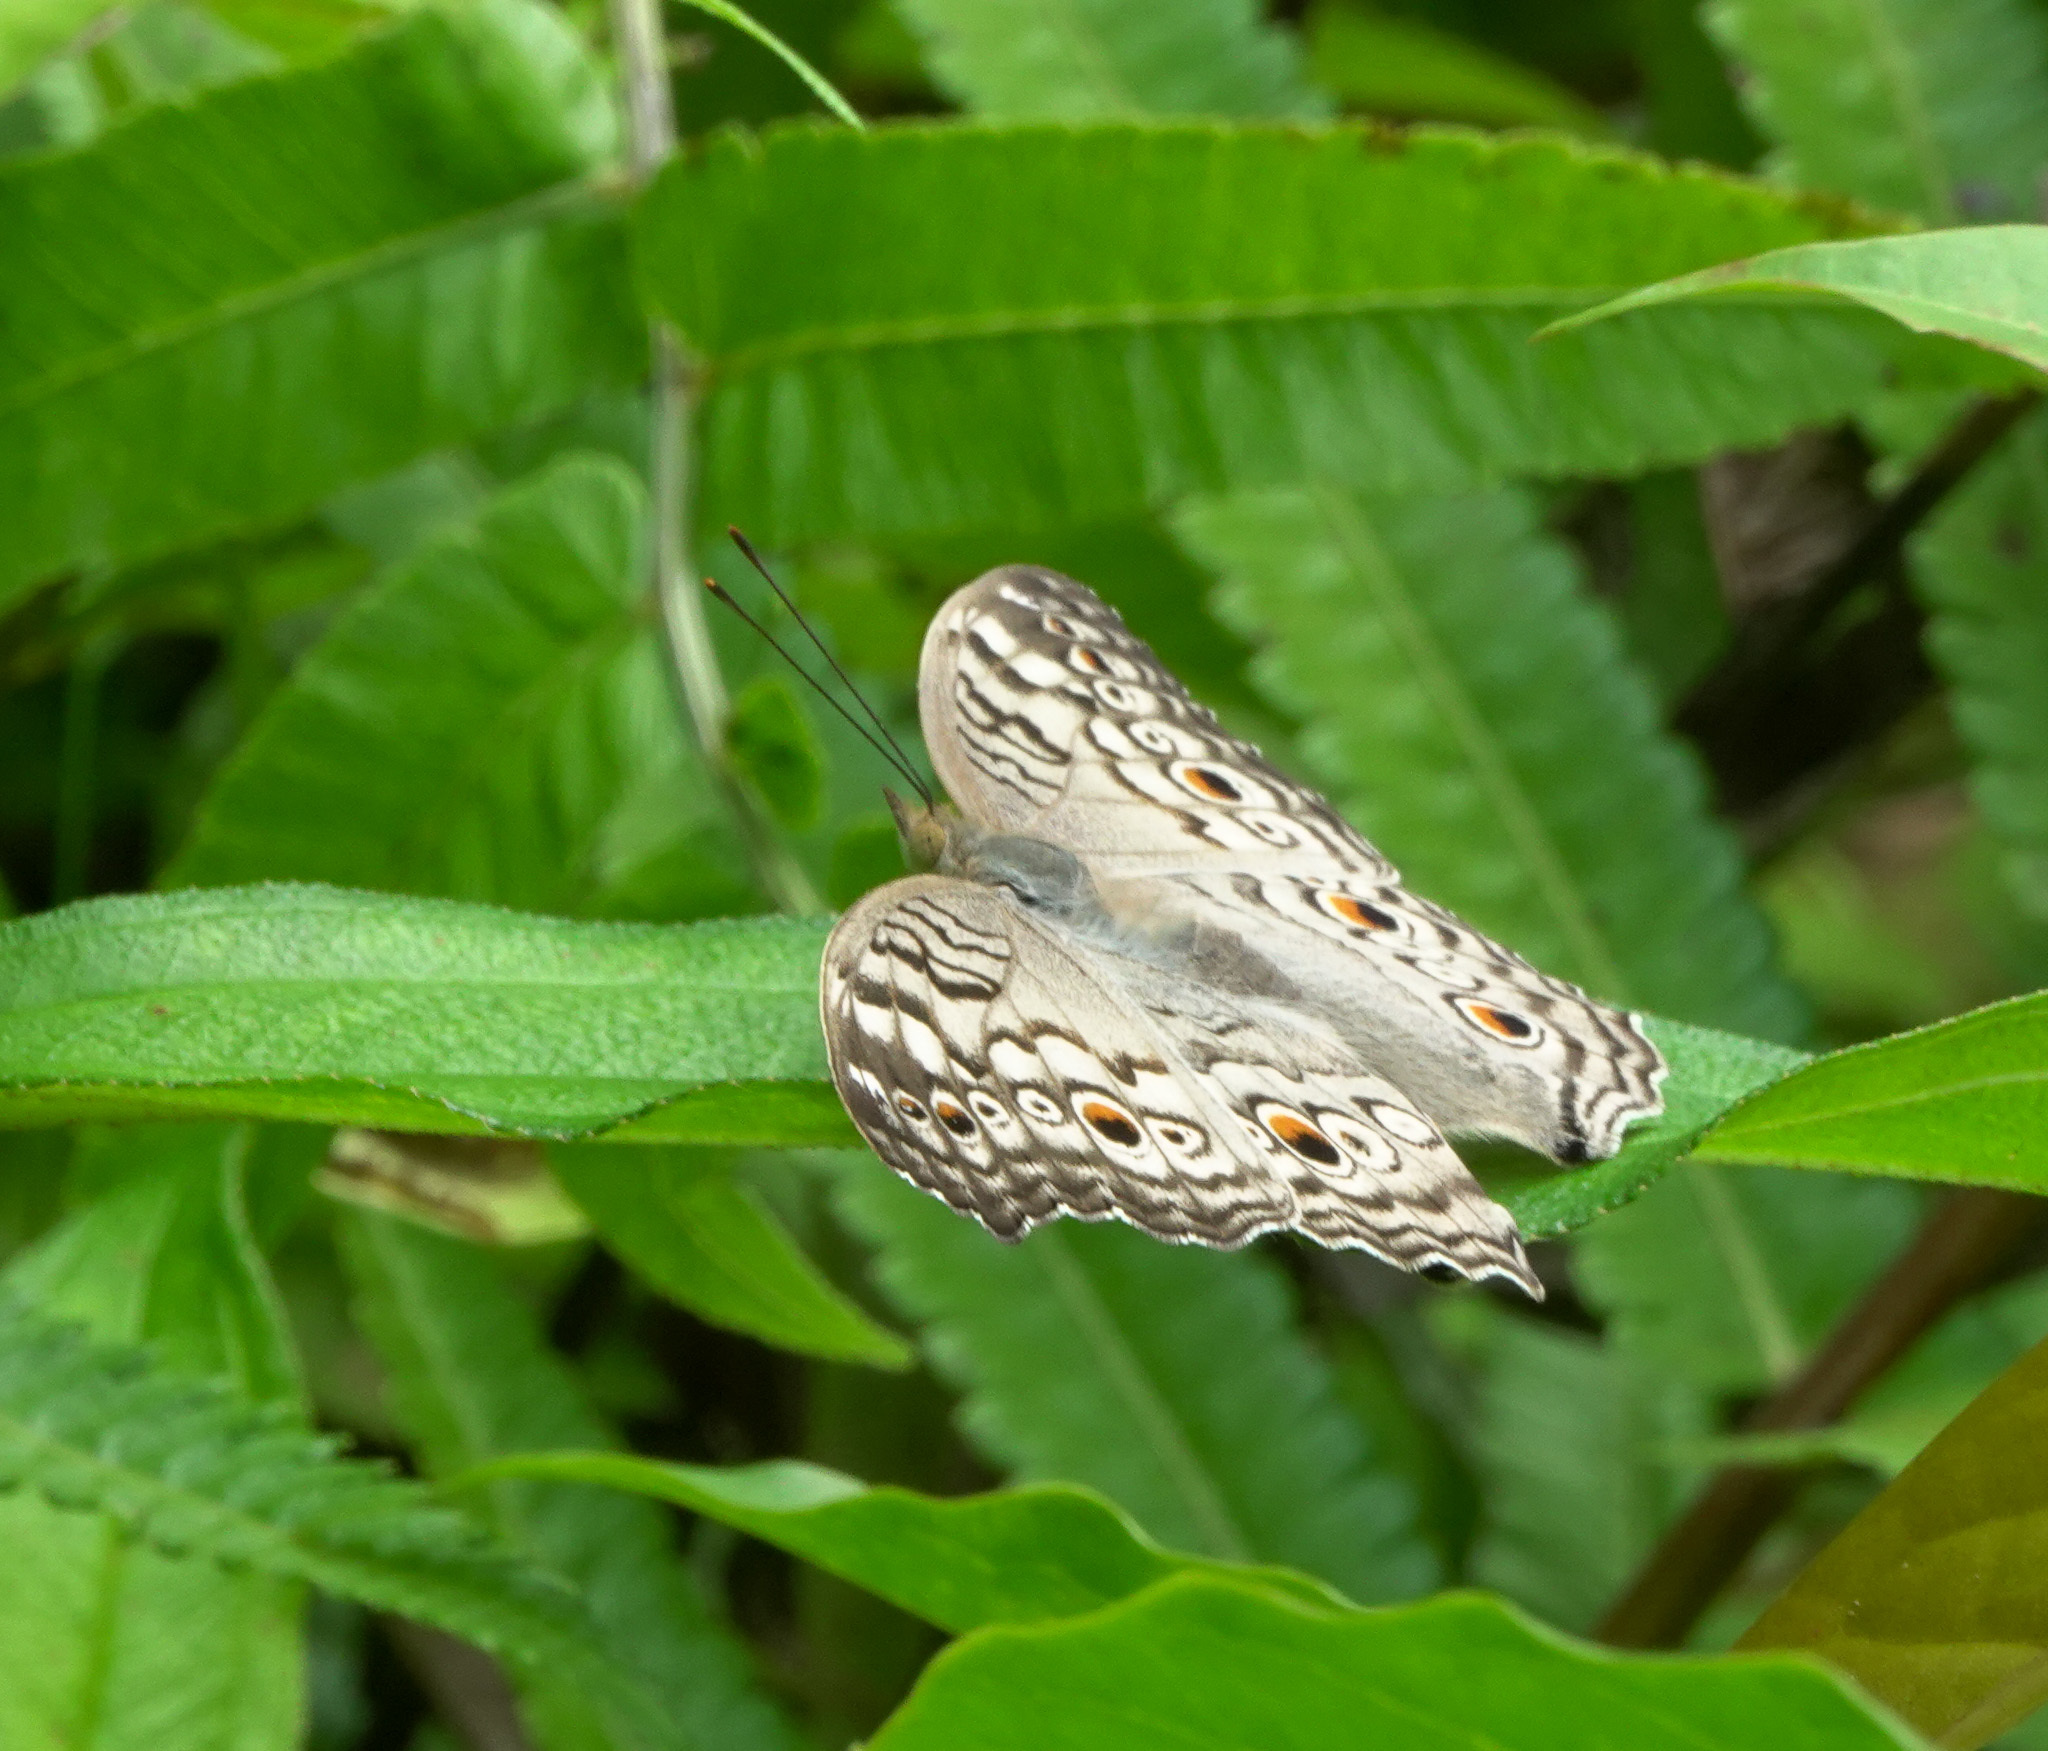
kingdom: Animalia
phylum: Arthropoda
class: Insecta
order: Lepidoptera
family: Nymphalidae
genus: Junonia
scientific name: Junonia atlites
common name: Grey pansy
